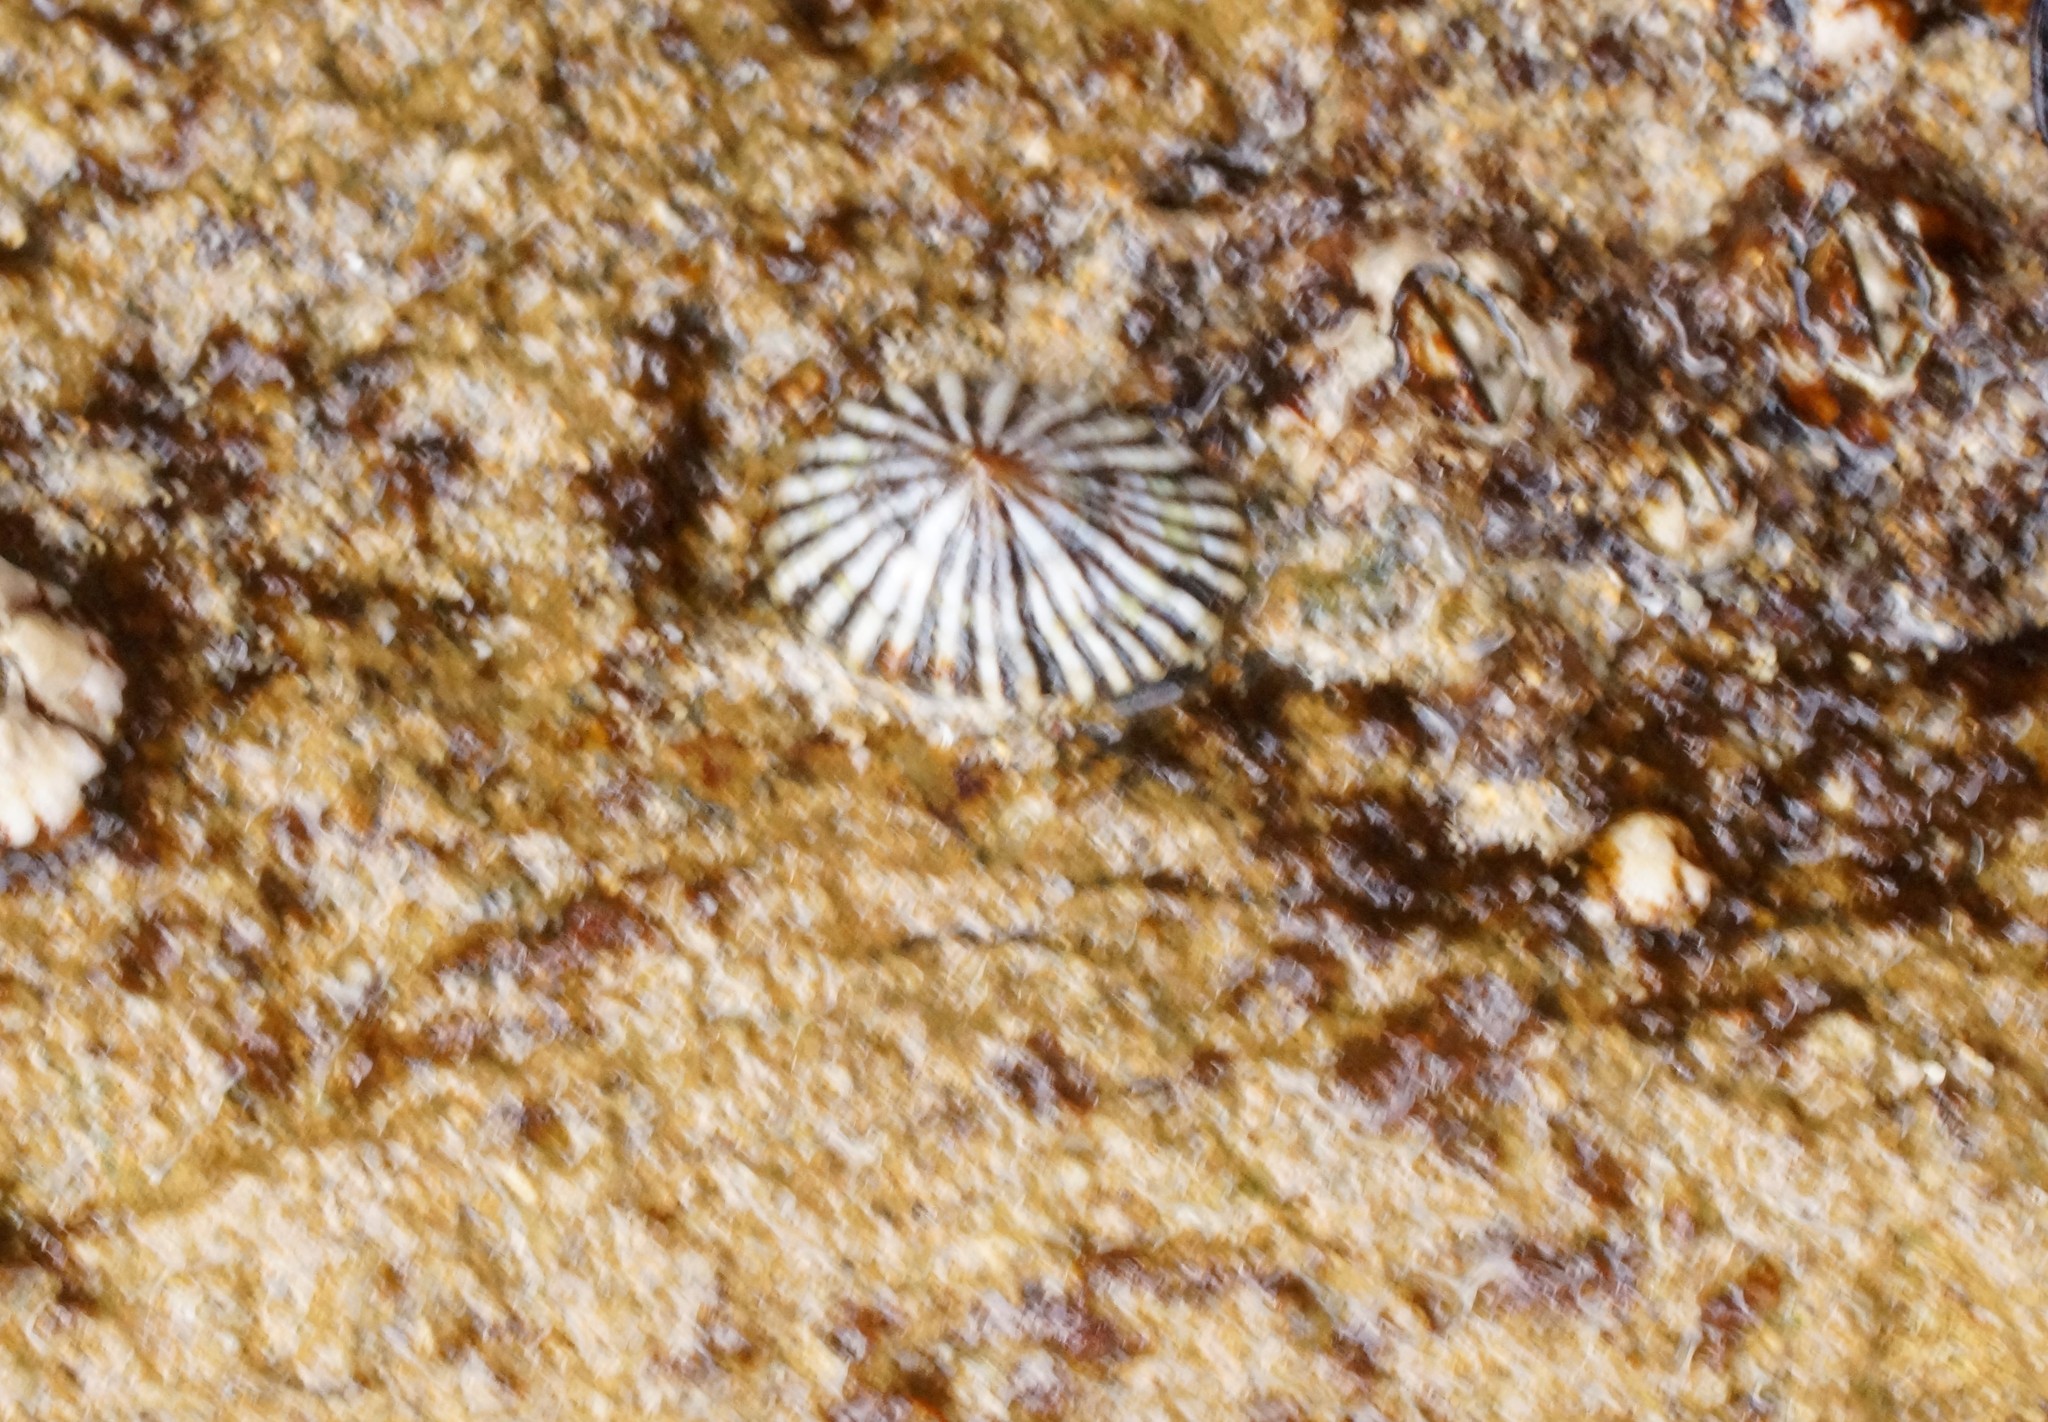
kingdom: Animalia
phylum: Mollusca
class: Gastropoda
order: Siphonariida
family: Siphonariidae
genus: Siphonaria
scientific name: Siphonaria diemenensis
